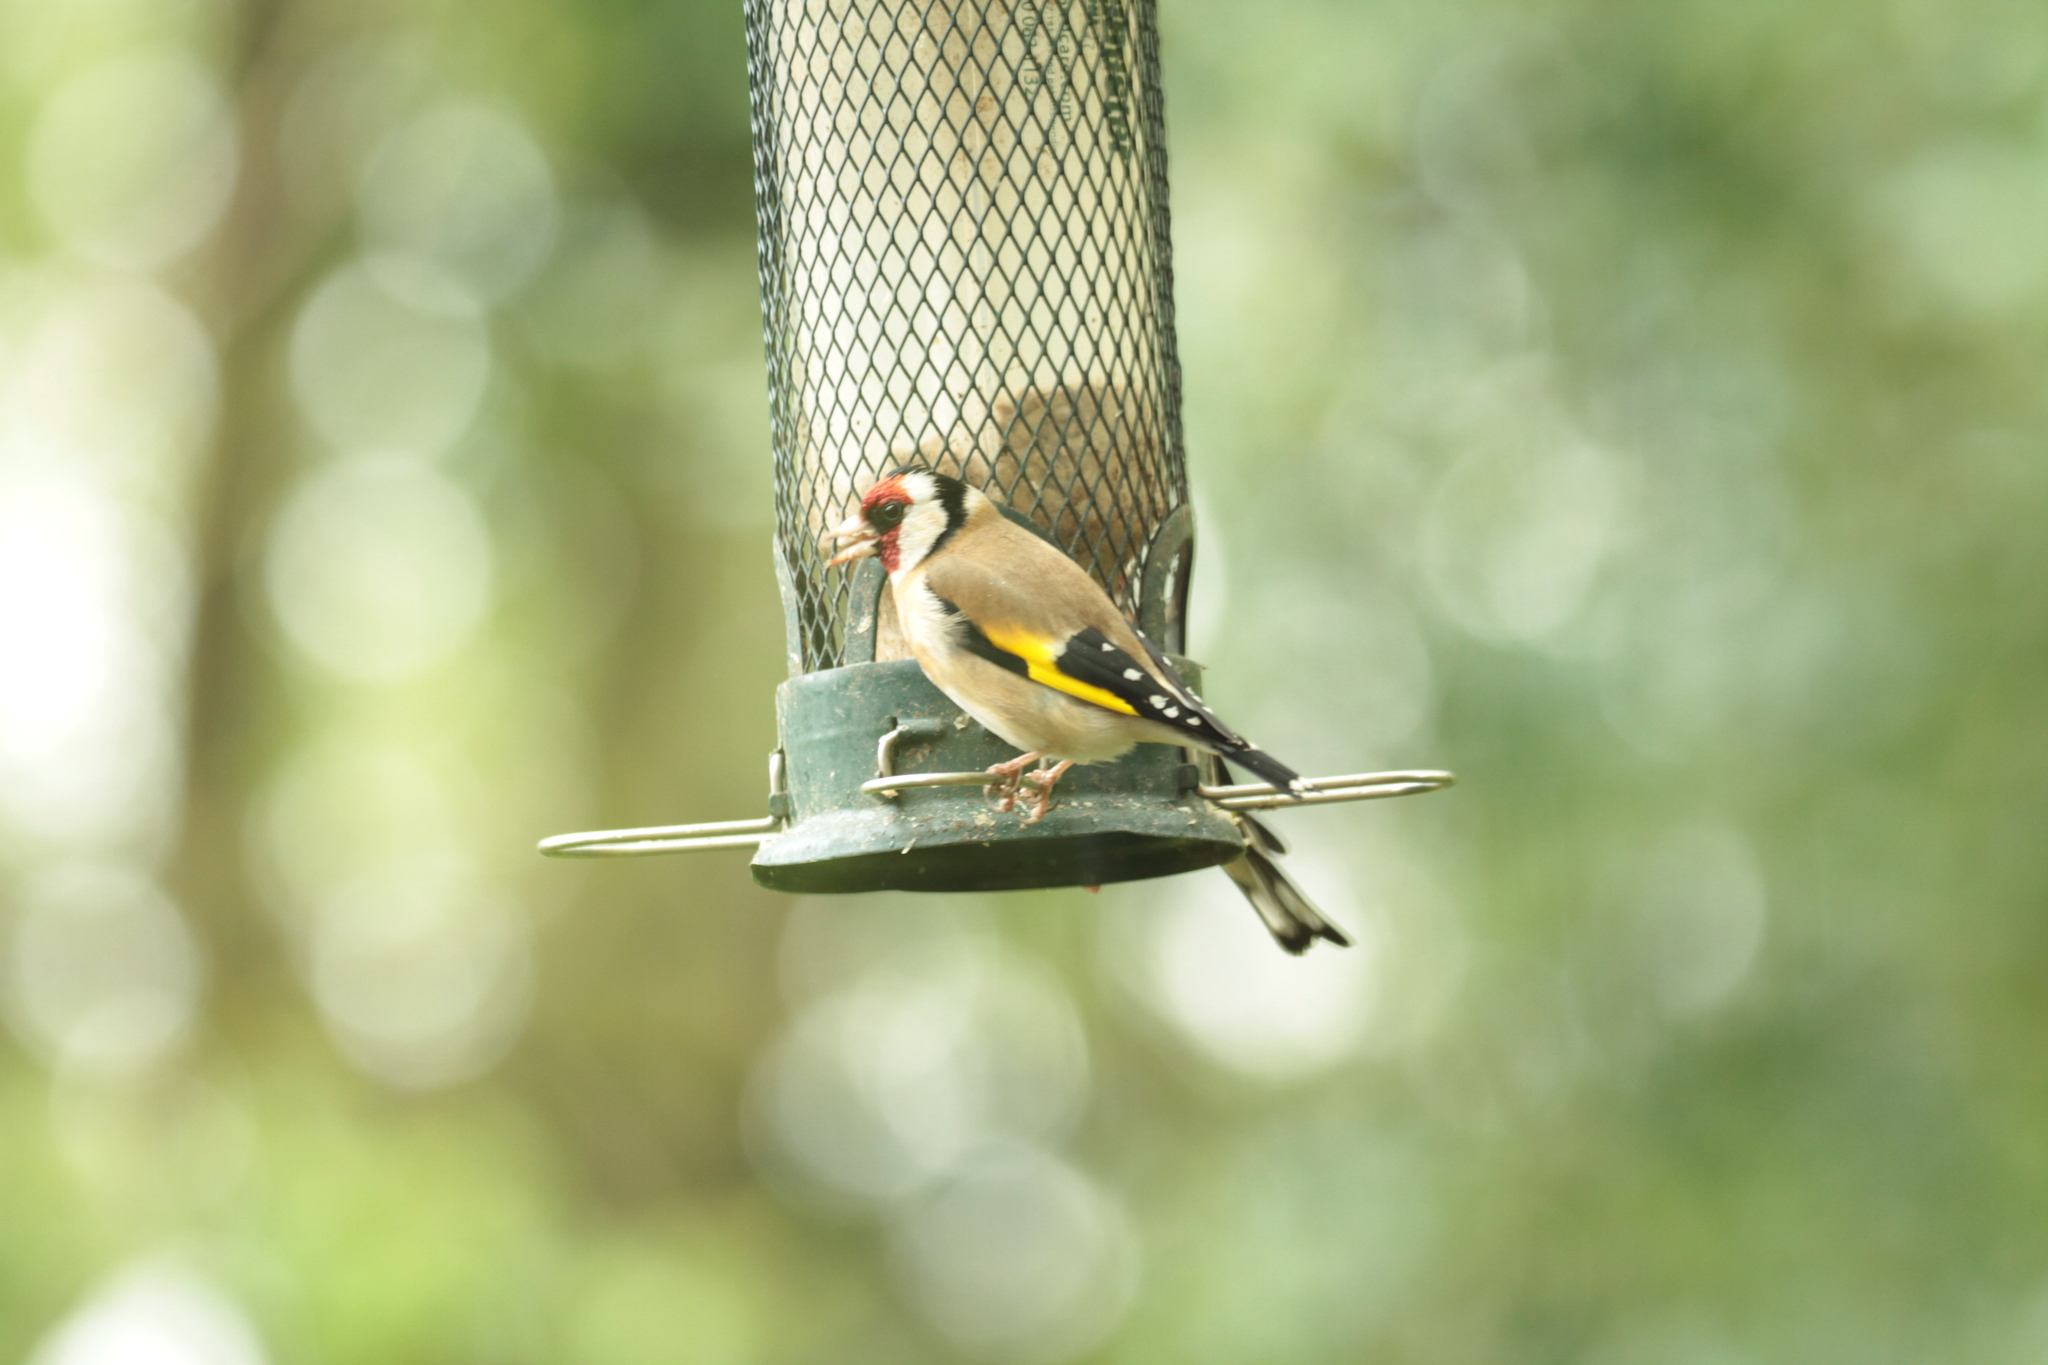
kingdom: Animalia
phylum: Chordata
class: Aves
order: Passeriformes
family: Fringillidae
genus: Carduelis
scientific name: Carduelis carduelis
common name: European goldfinch
